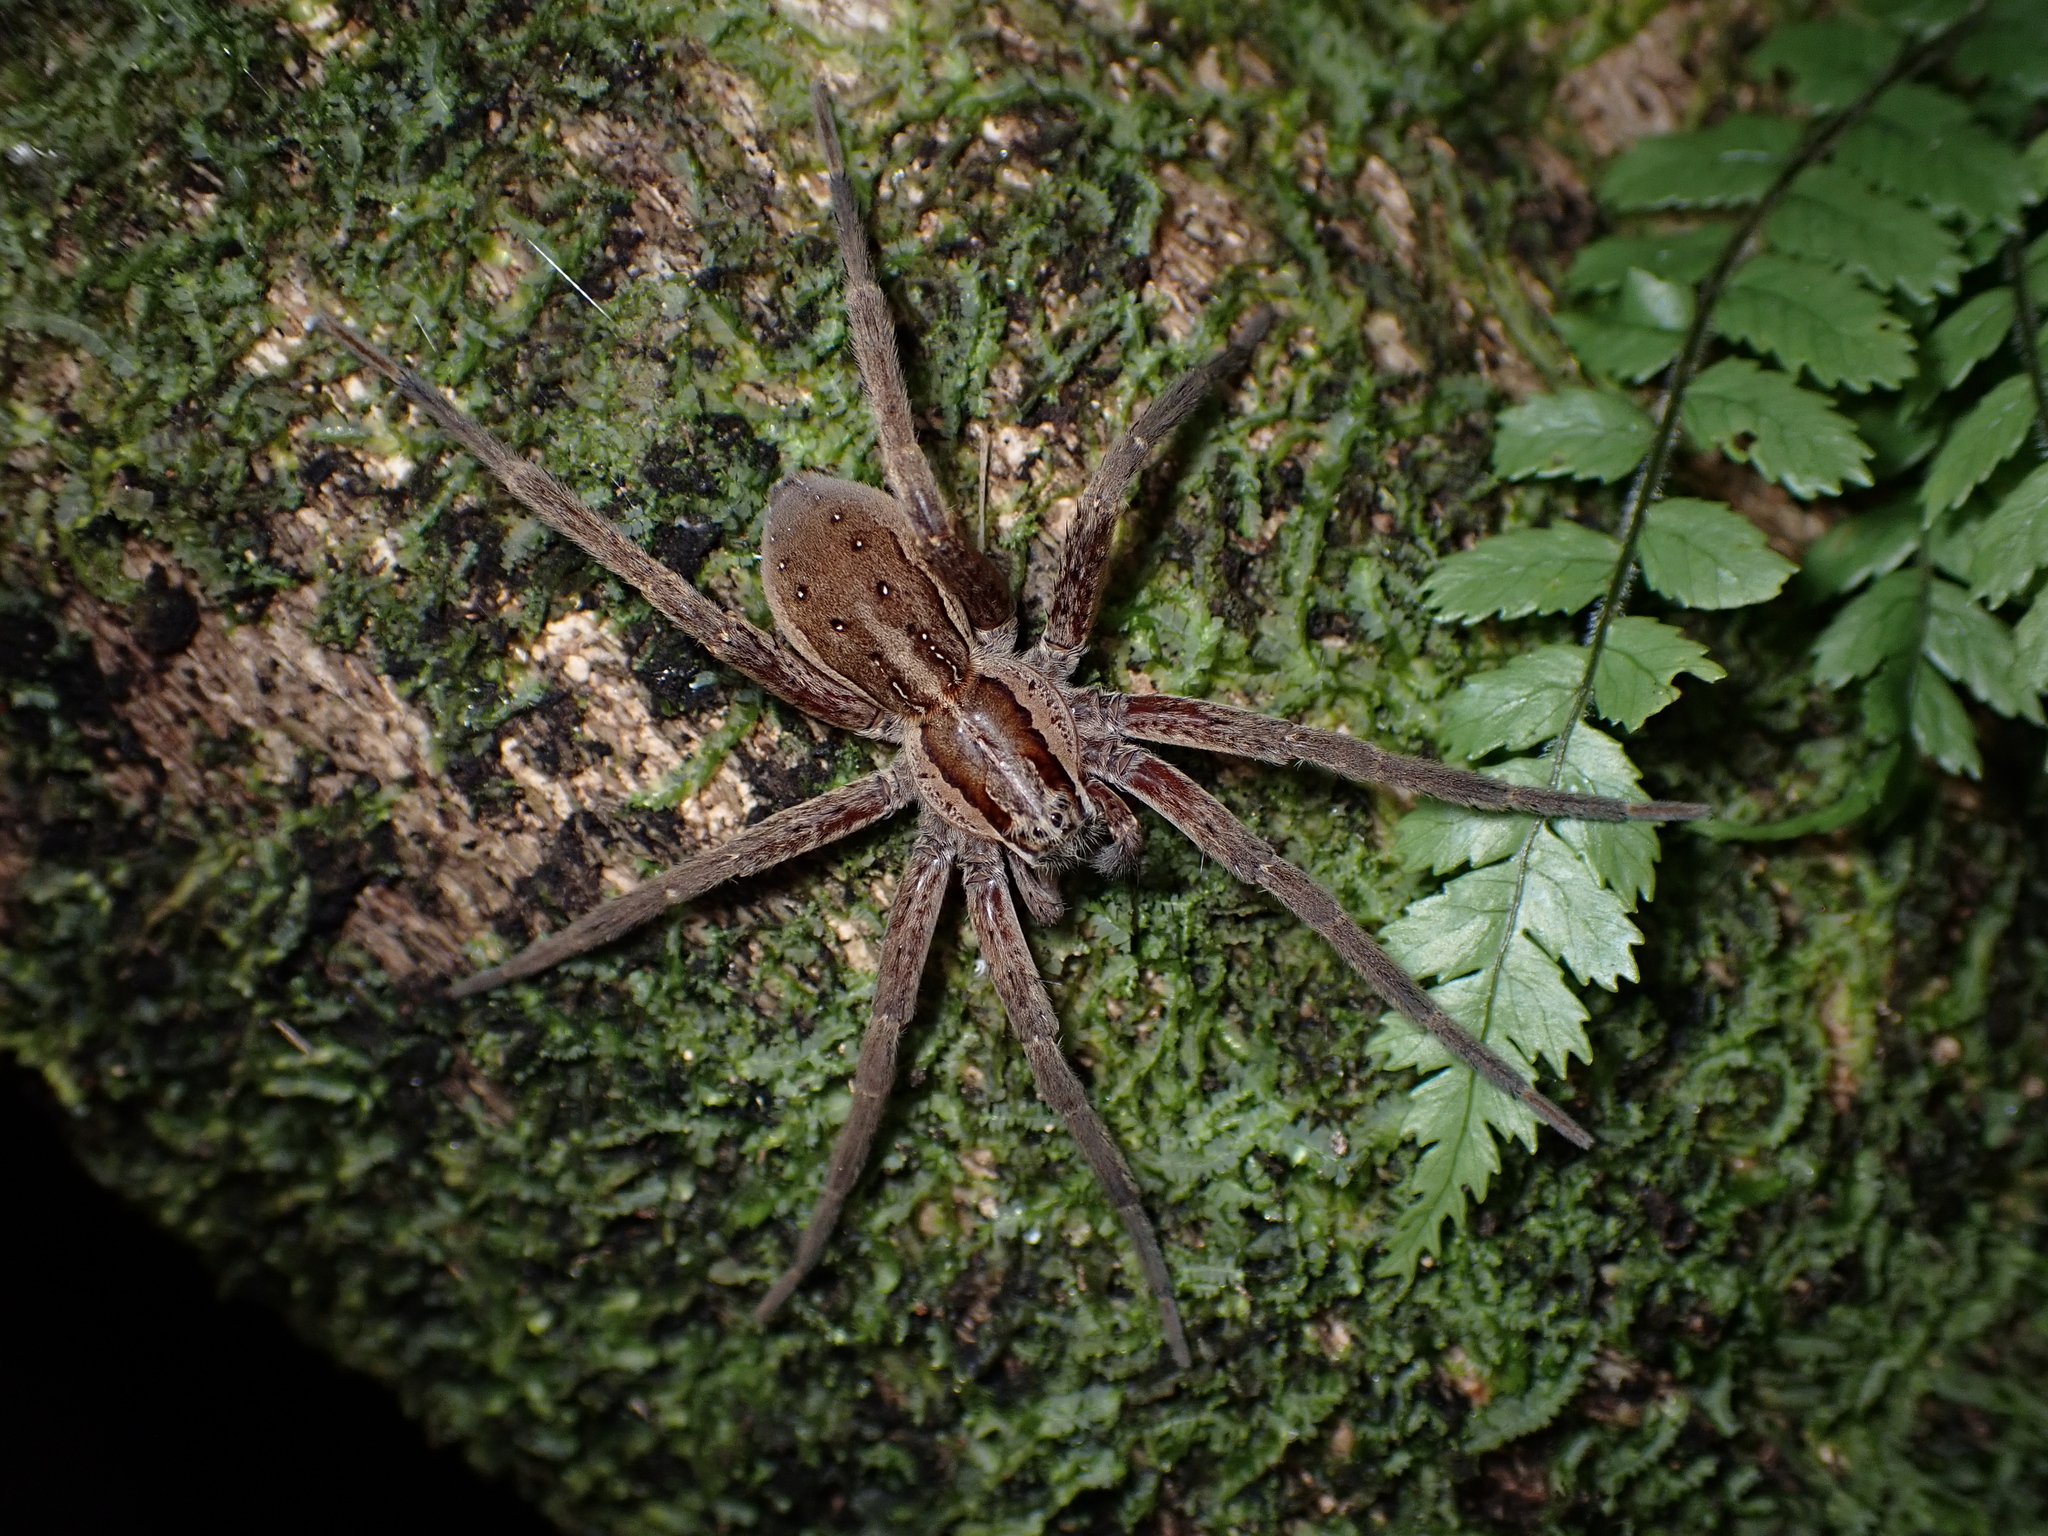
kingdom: Animalia
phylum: Arthropoda
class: Arachnida
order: Araneae
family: Pisauridae
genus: Dolomedes
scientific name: Dolomedes minor
